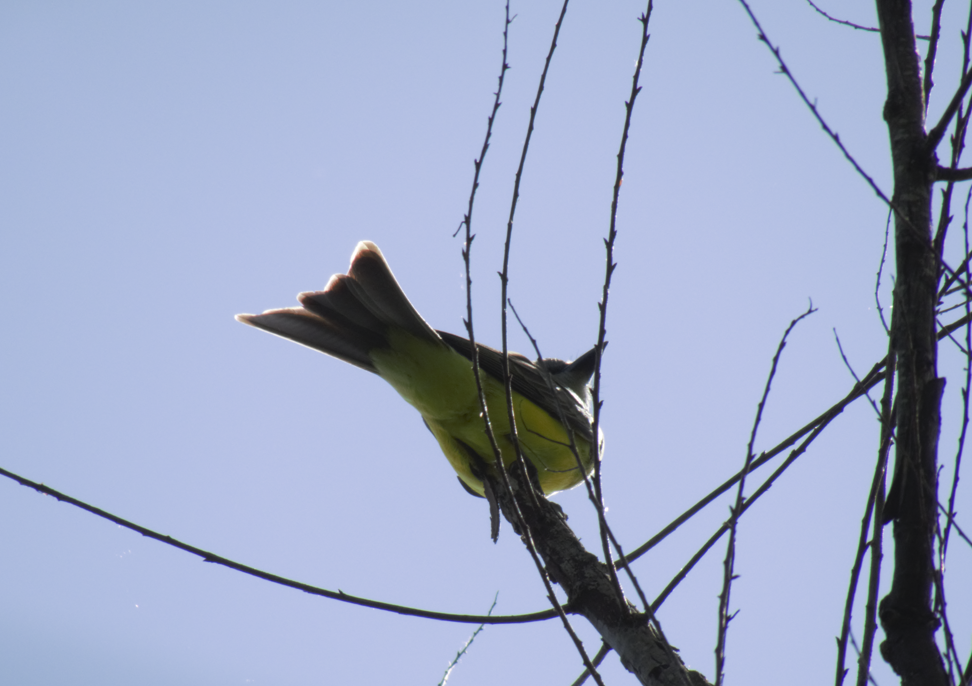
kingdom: Animalia
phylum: Chordata
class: Aves
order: Passeriformes
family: Tyrannidae
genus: Tyrannus
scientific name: Tyrannus melancholicus
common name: Tropical kingbird
